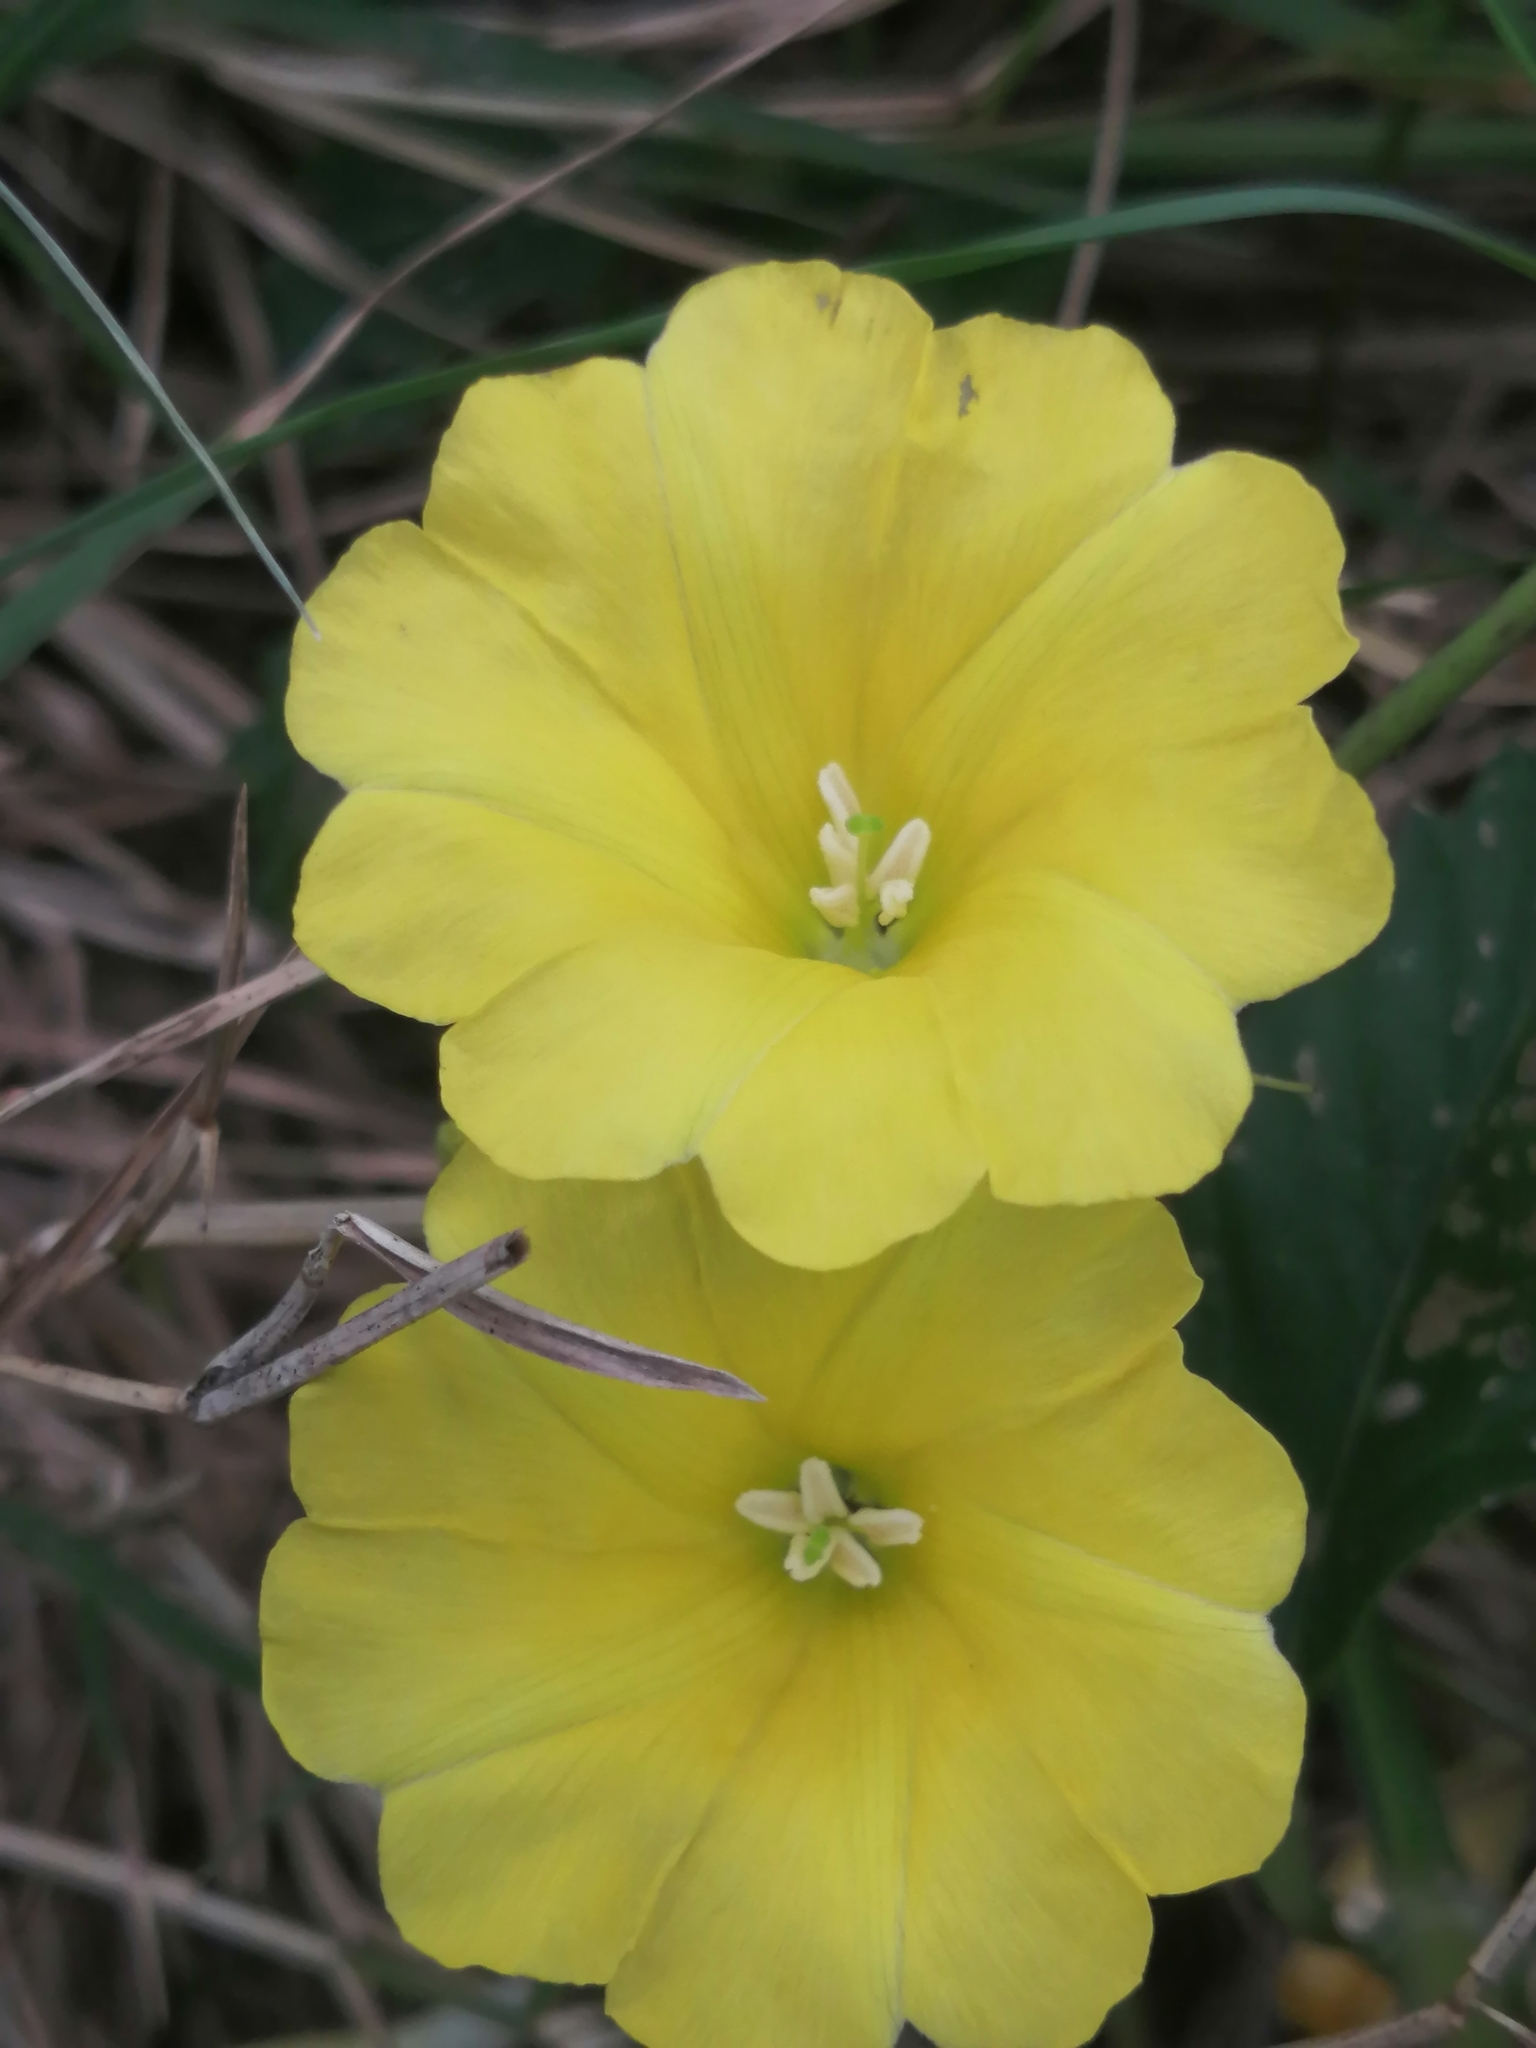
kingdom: Plantae
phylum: Tracheophyta
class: Magnoliopsida
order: Solanales
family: Convolvulaceae
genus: Camonea
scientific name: Camonea umbellata
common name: Hogvine
